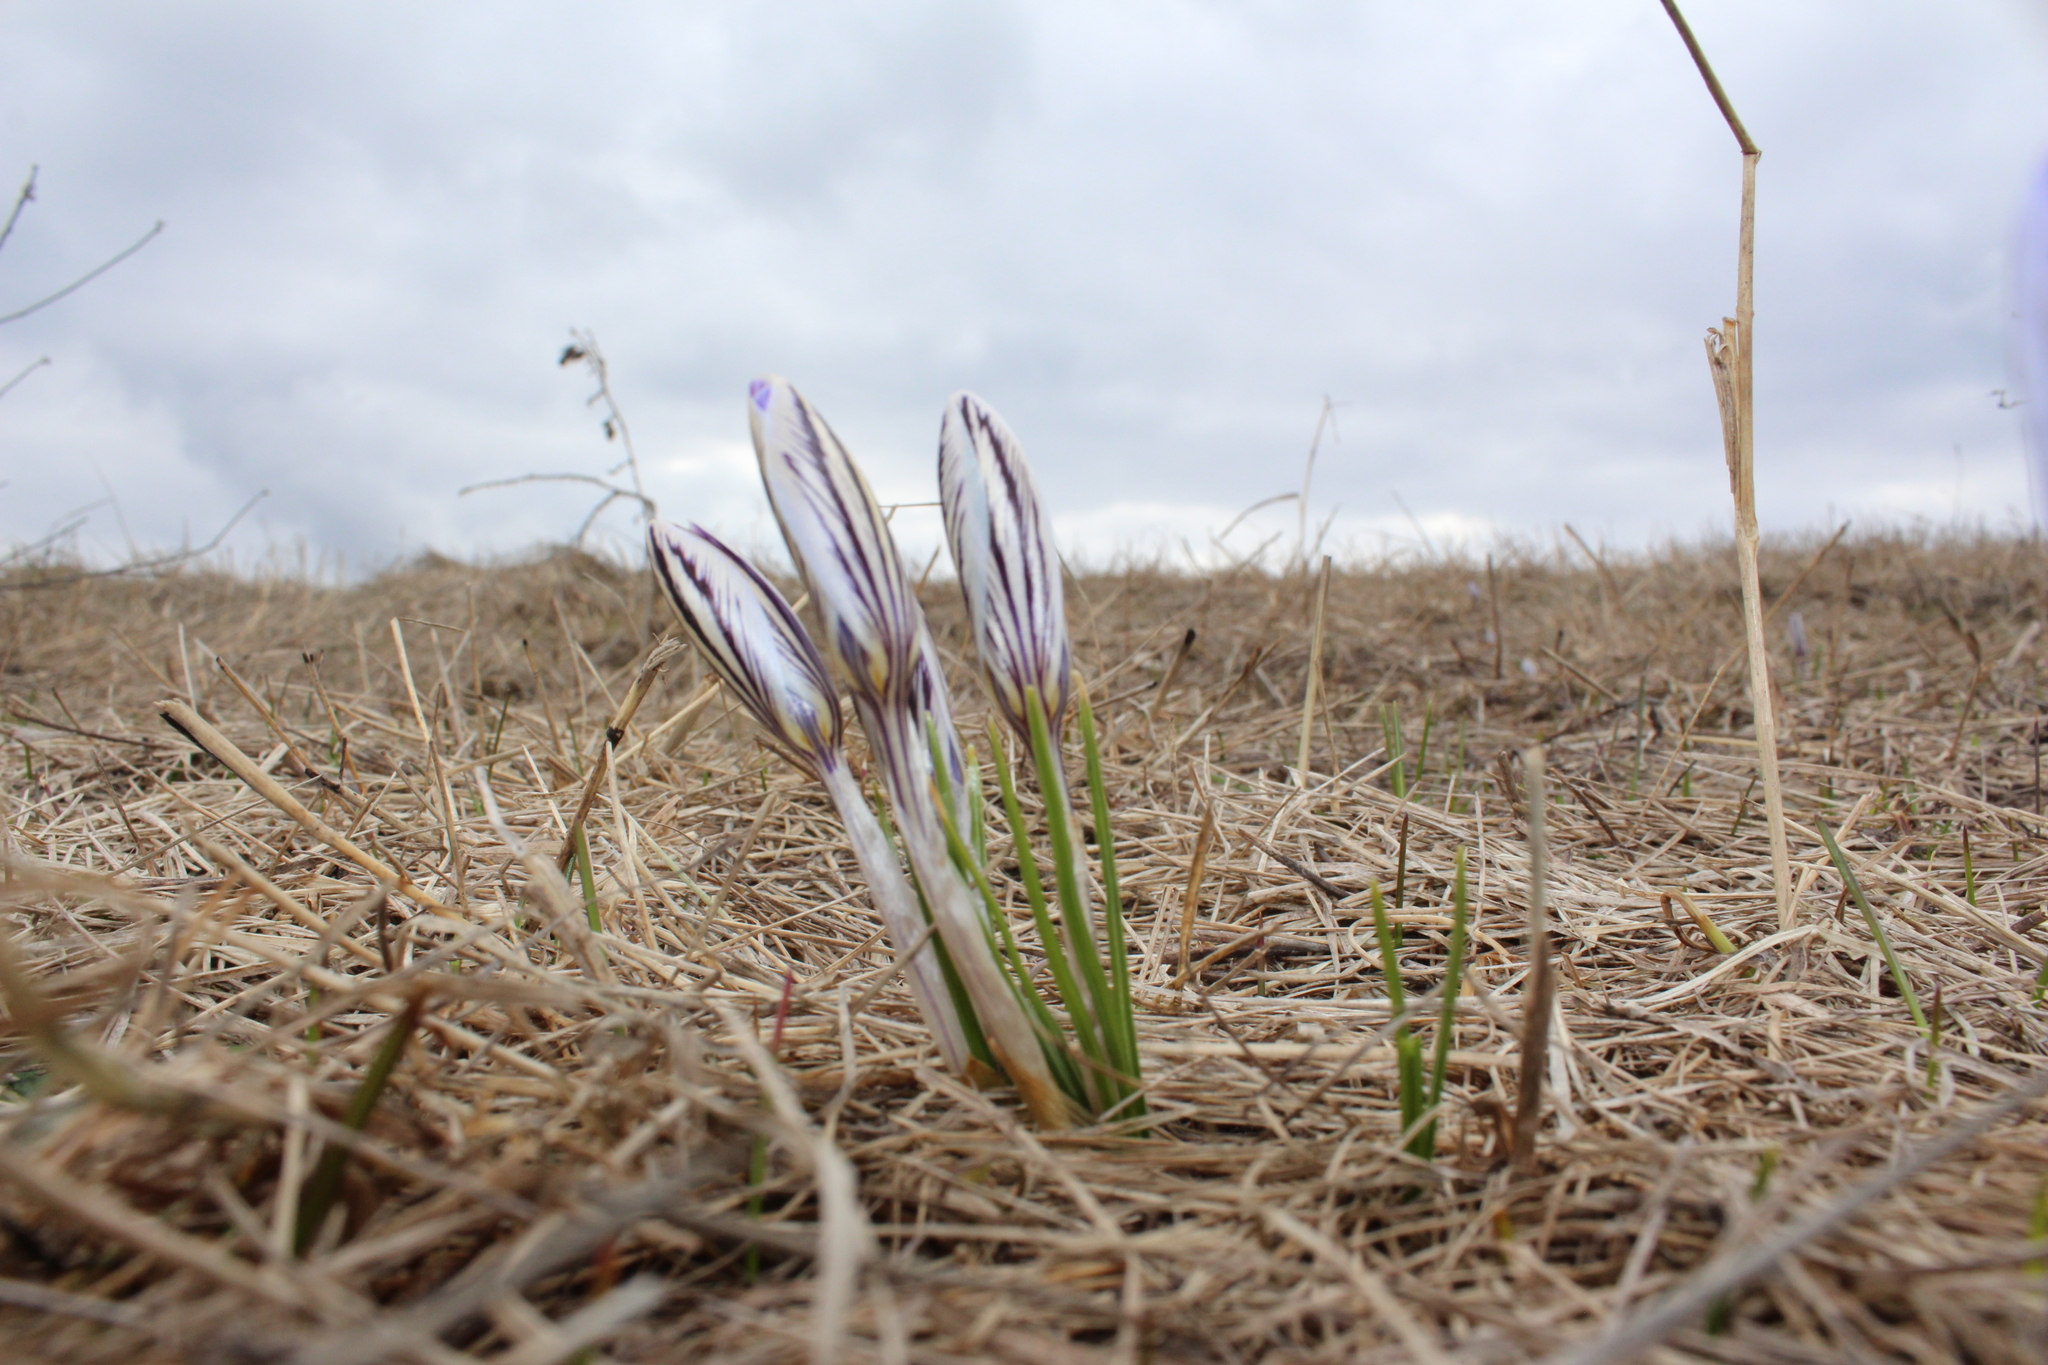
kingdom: Plantae
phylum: Tracheophyta
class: Liliopsida
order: Asparagales
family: Iridaceae
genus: Crocus
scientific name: Crocus reticulatus
